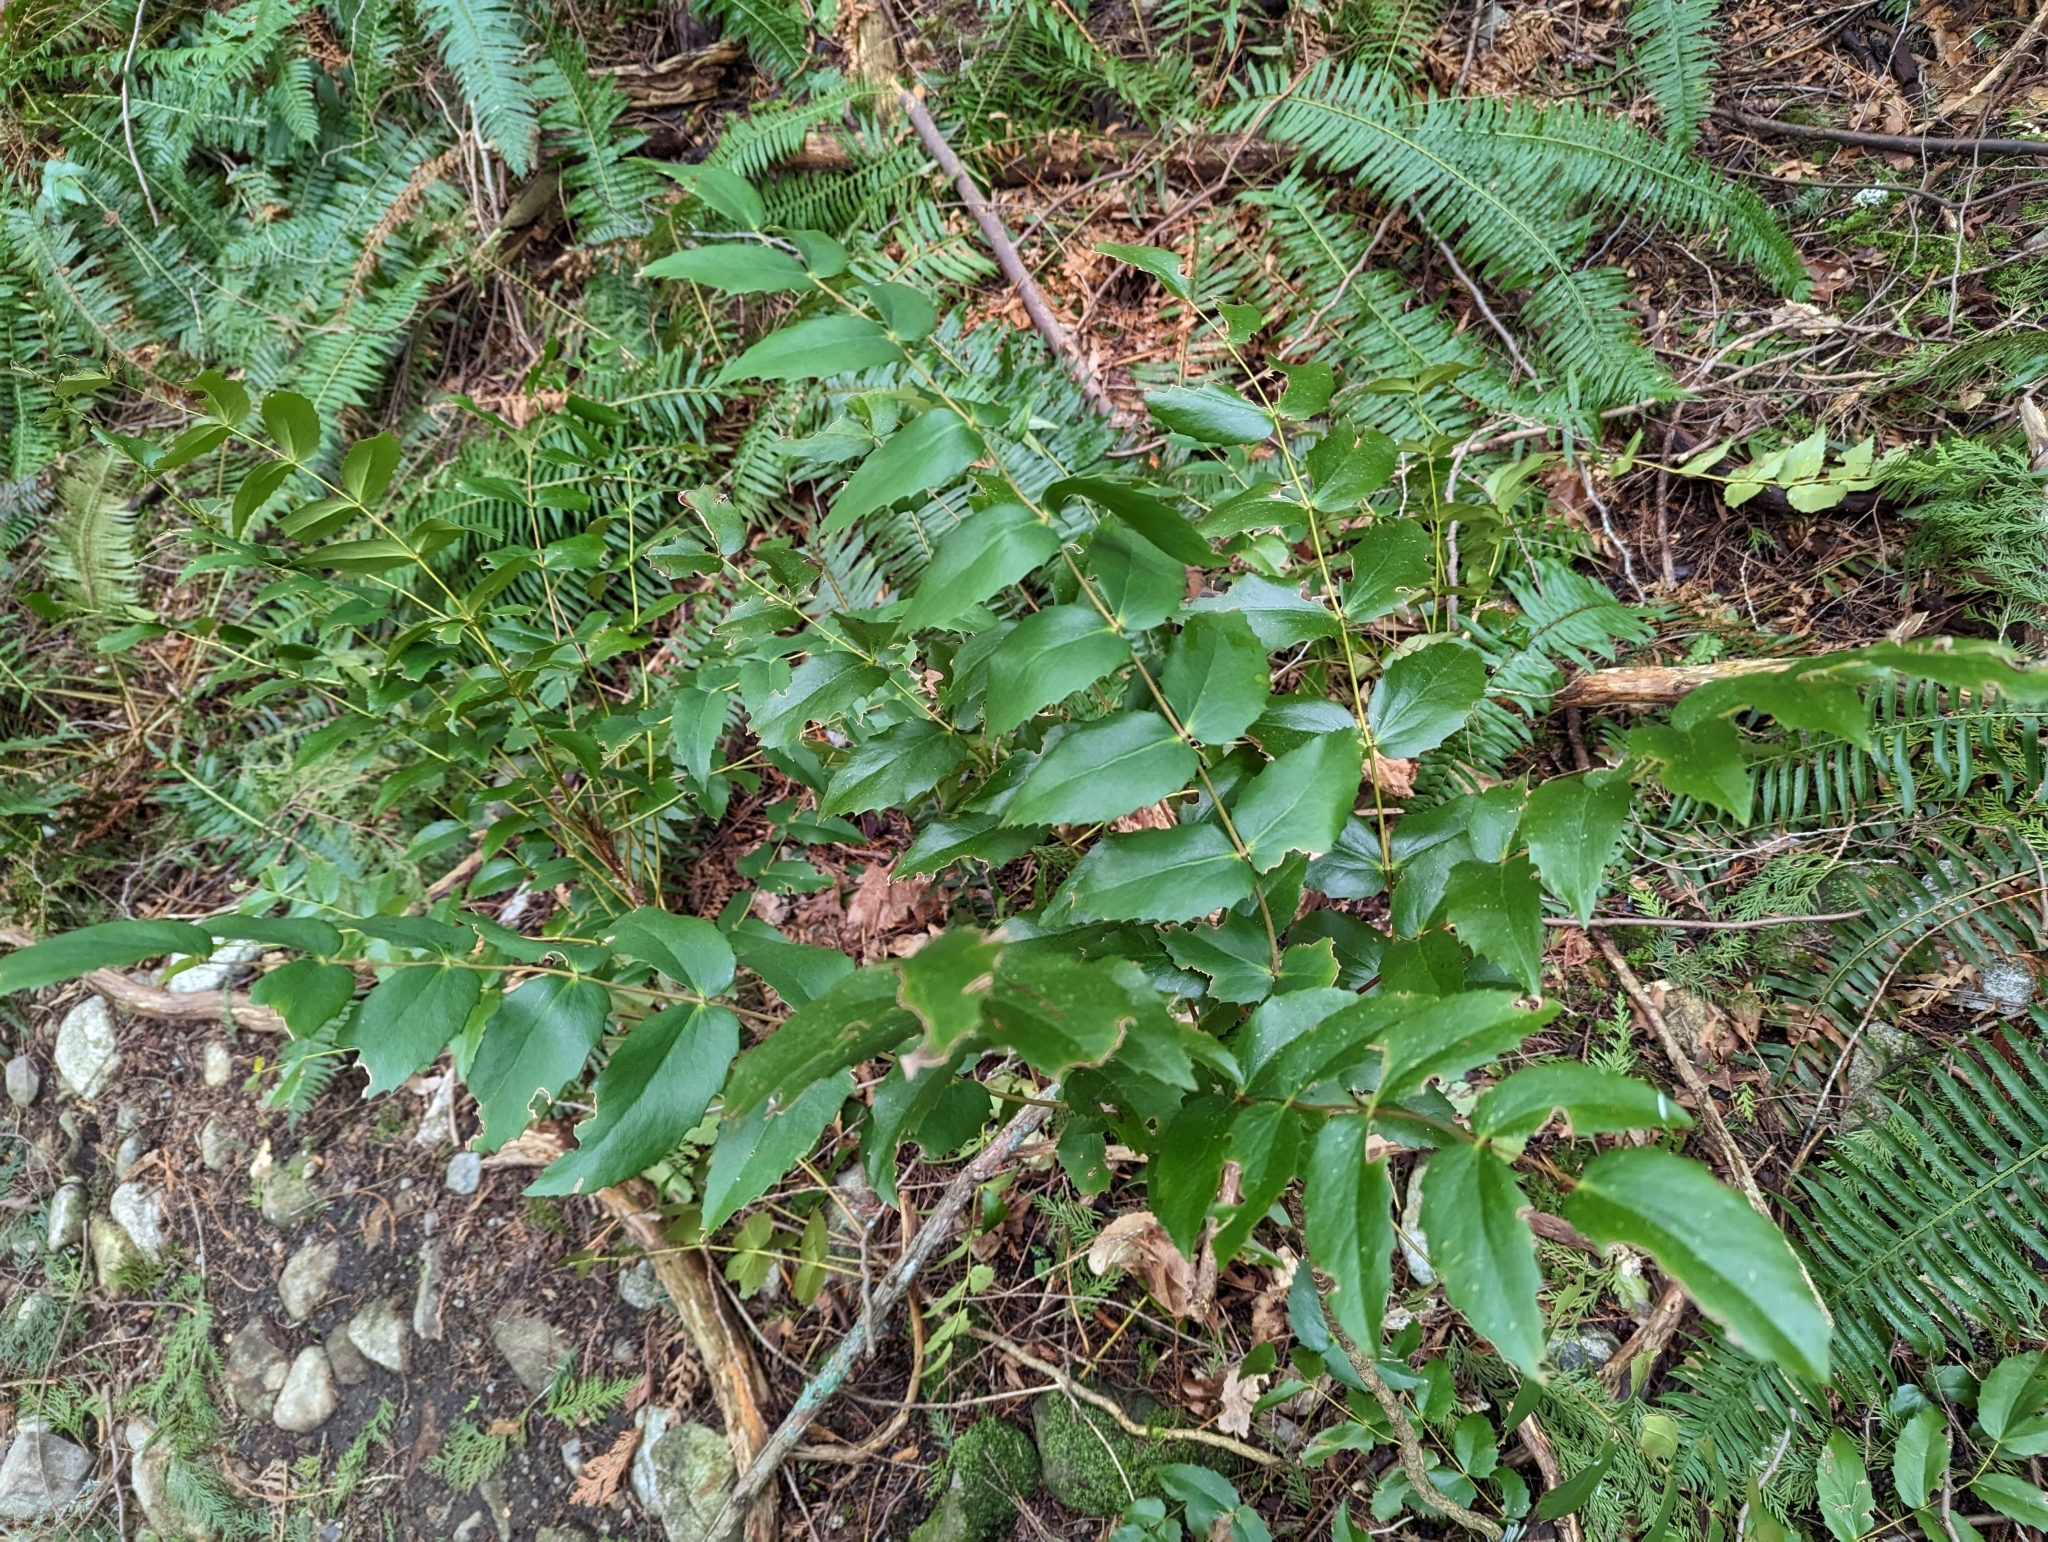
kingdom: Plantae
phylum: Tracheophyta
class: Magnoliopsida
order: Ranunculales
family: Berberidaceae
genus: Mahonia
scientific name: Mahonia nervosa
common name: Cascade oregon-grape
